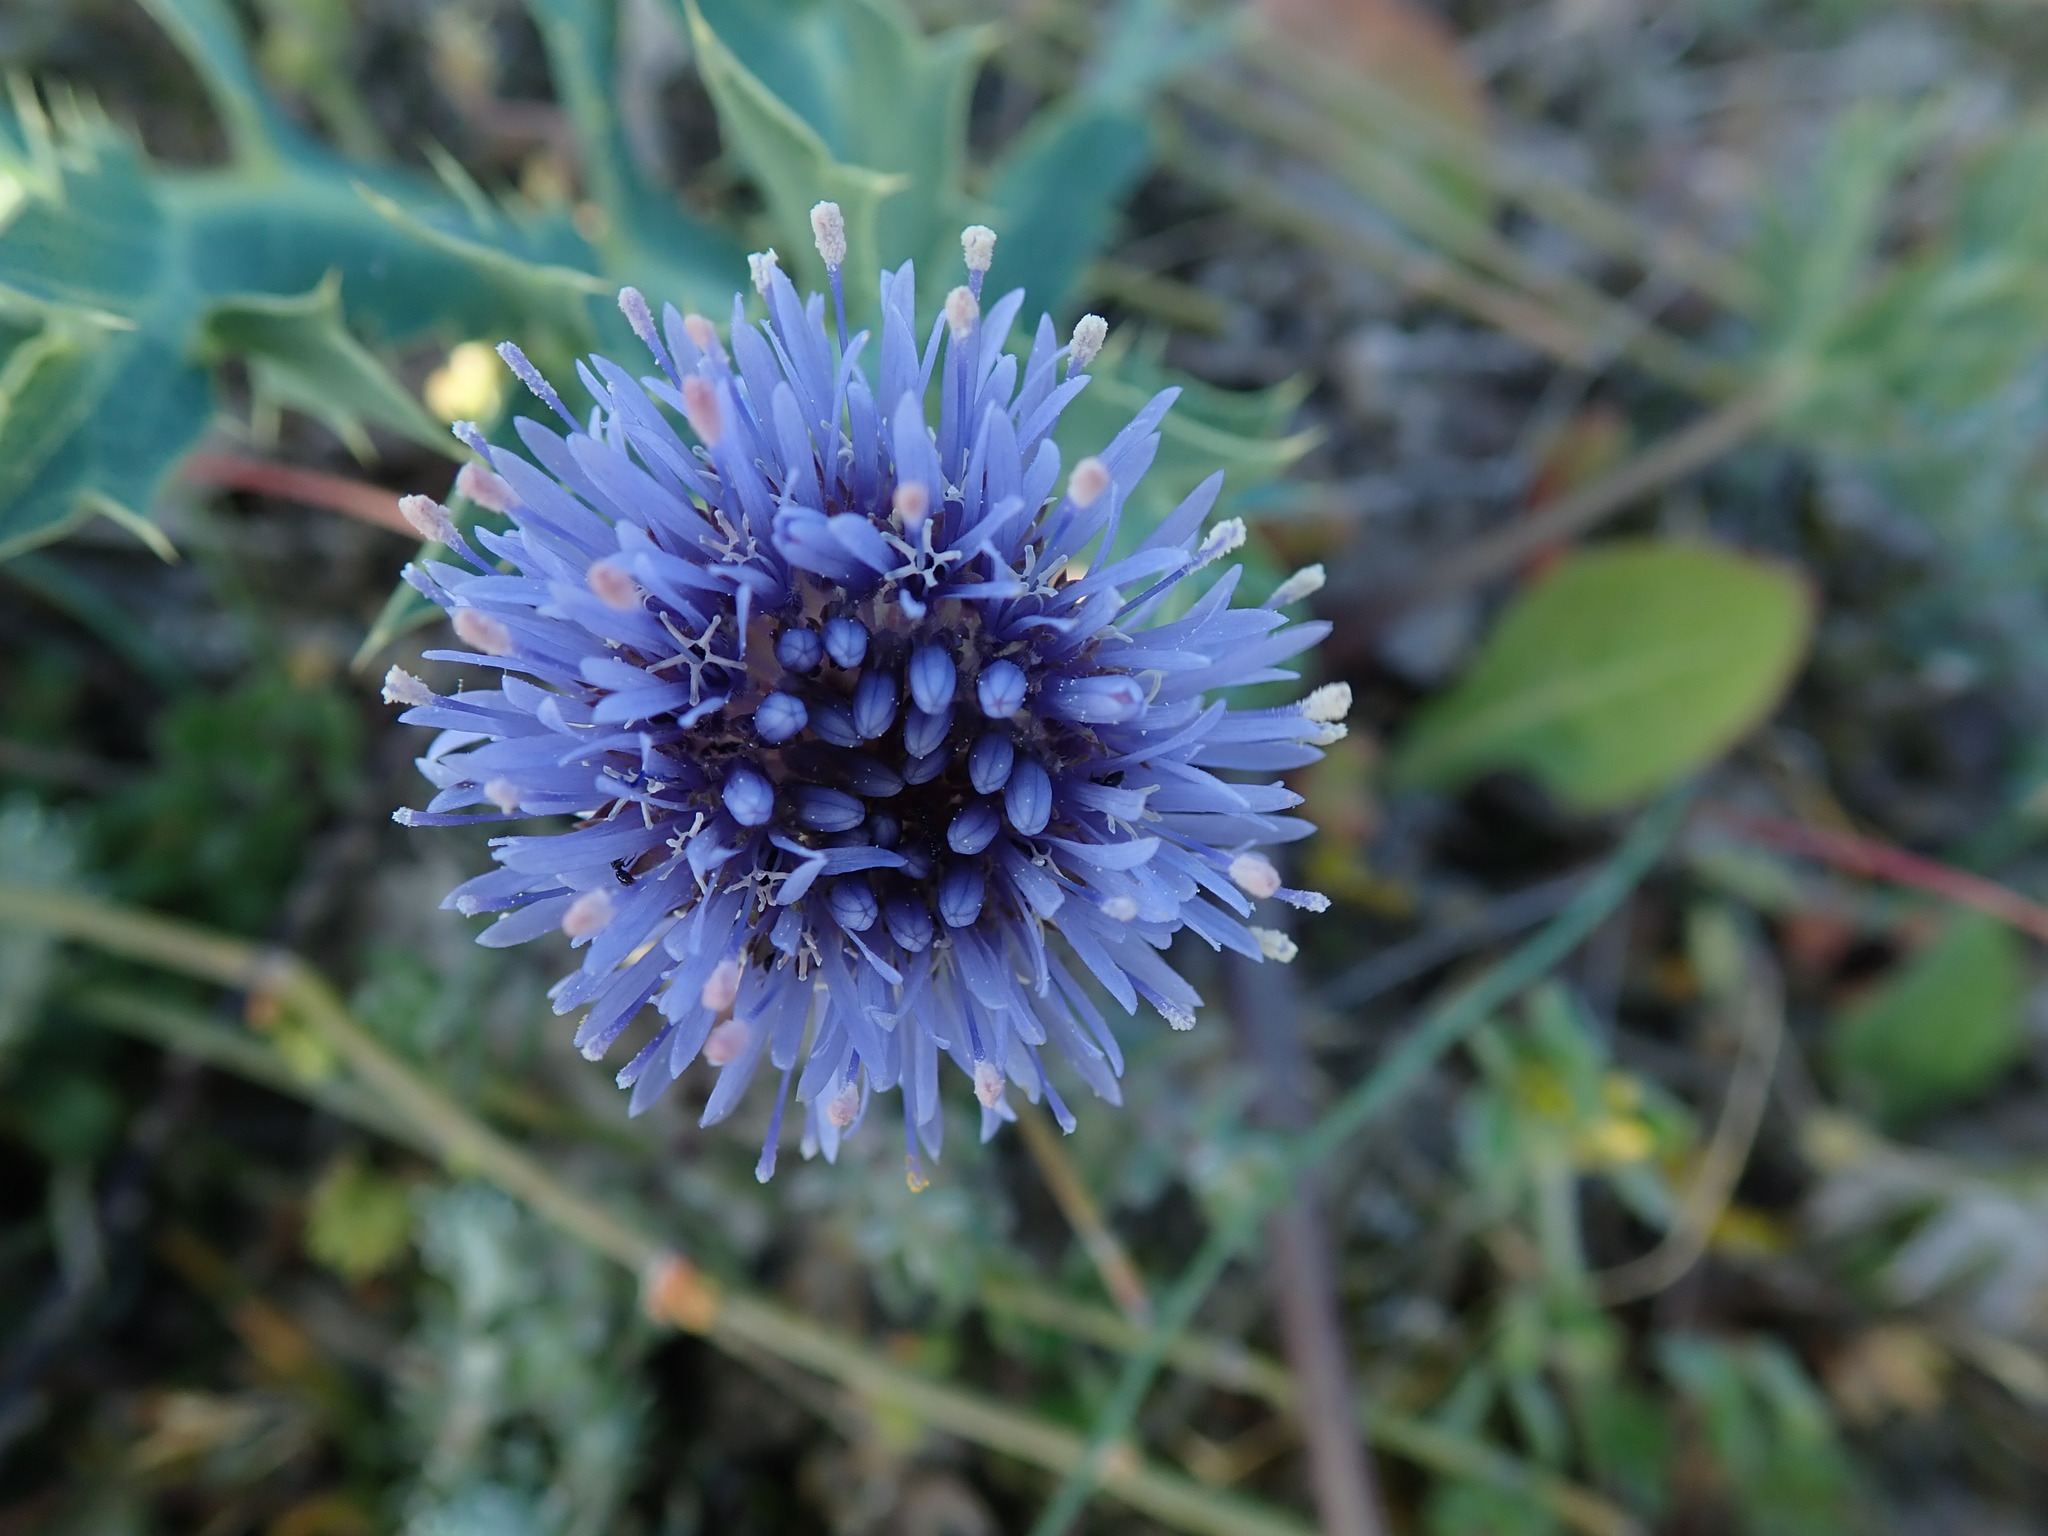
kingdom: Plantae
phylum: Tracheophyta
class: Magnoliopsida
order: Asterales
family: Campanulaceae
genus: Jasione
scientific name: Jasione montana
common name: Sheep's-bit
